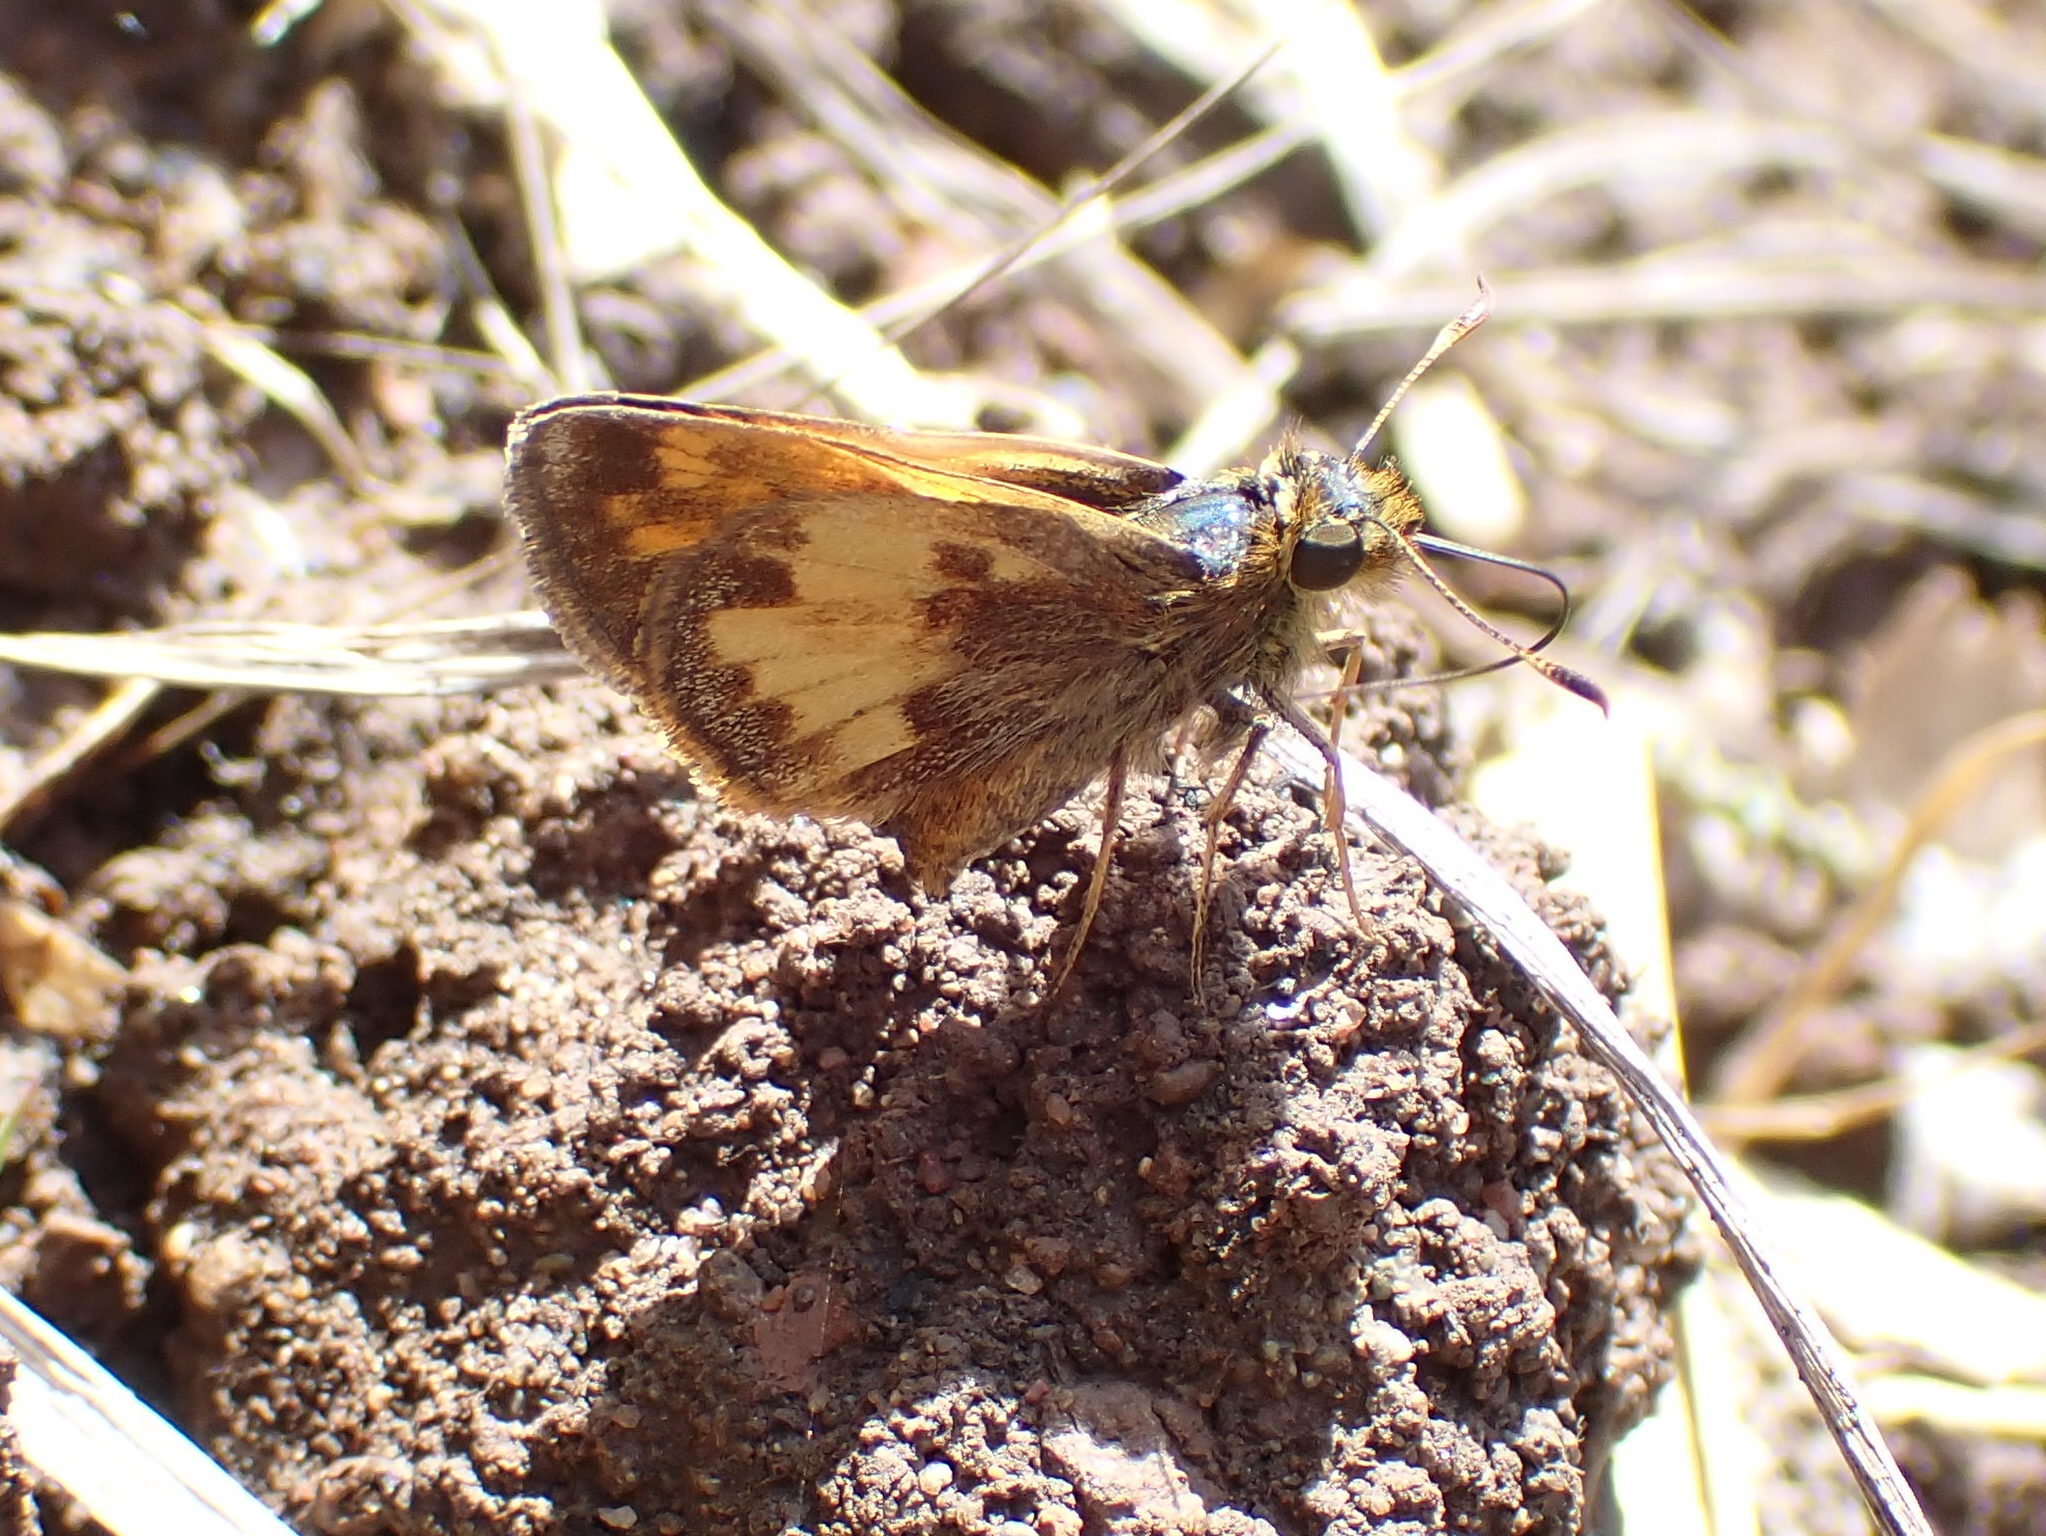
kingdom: Animalia
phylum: Arthropoda
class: Insecta
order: Lepidoptera
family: Hesperiidae
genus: Lon
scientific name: Lon hobomok
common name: Hobomok skipper
